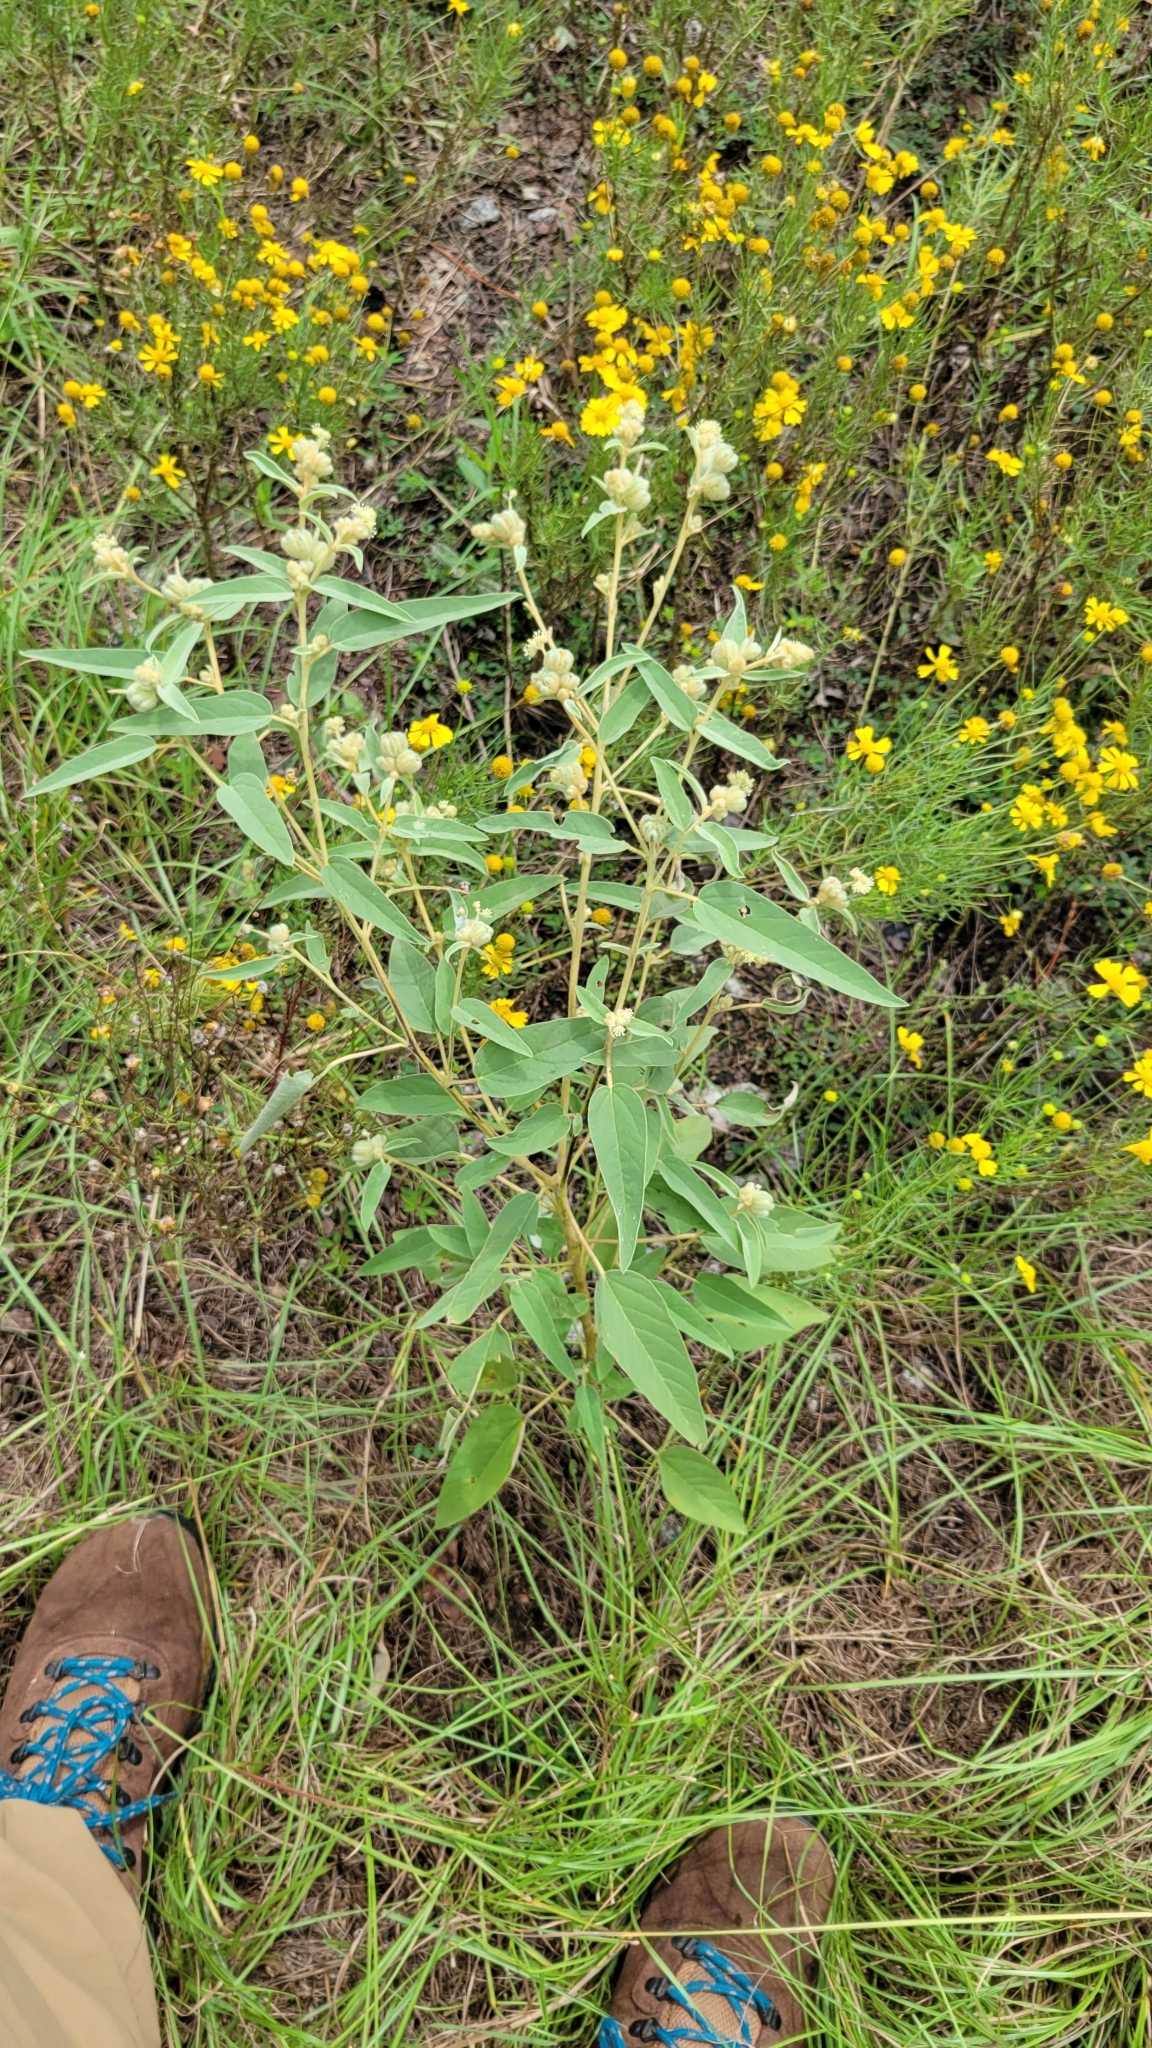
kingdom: Plantae
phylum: Tracheophyta
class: Magnoliopsida
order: Malpighiales
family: Euphorbiaceae
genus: Croton
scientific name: Croton lindheimeri
